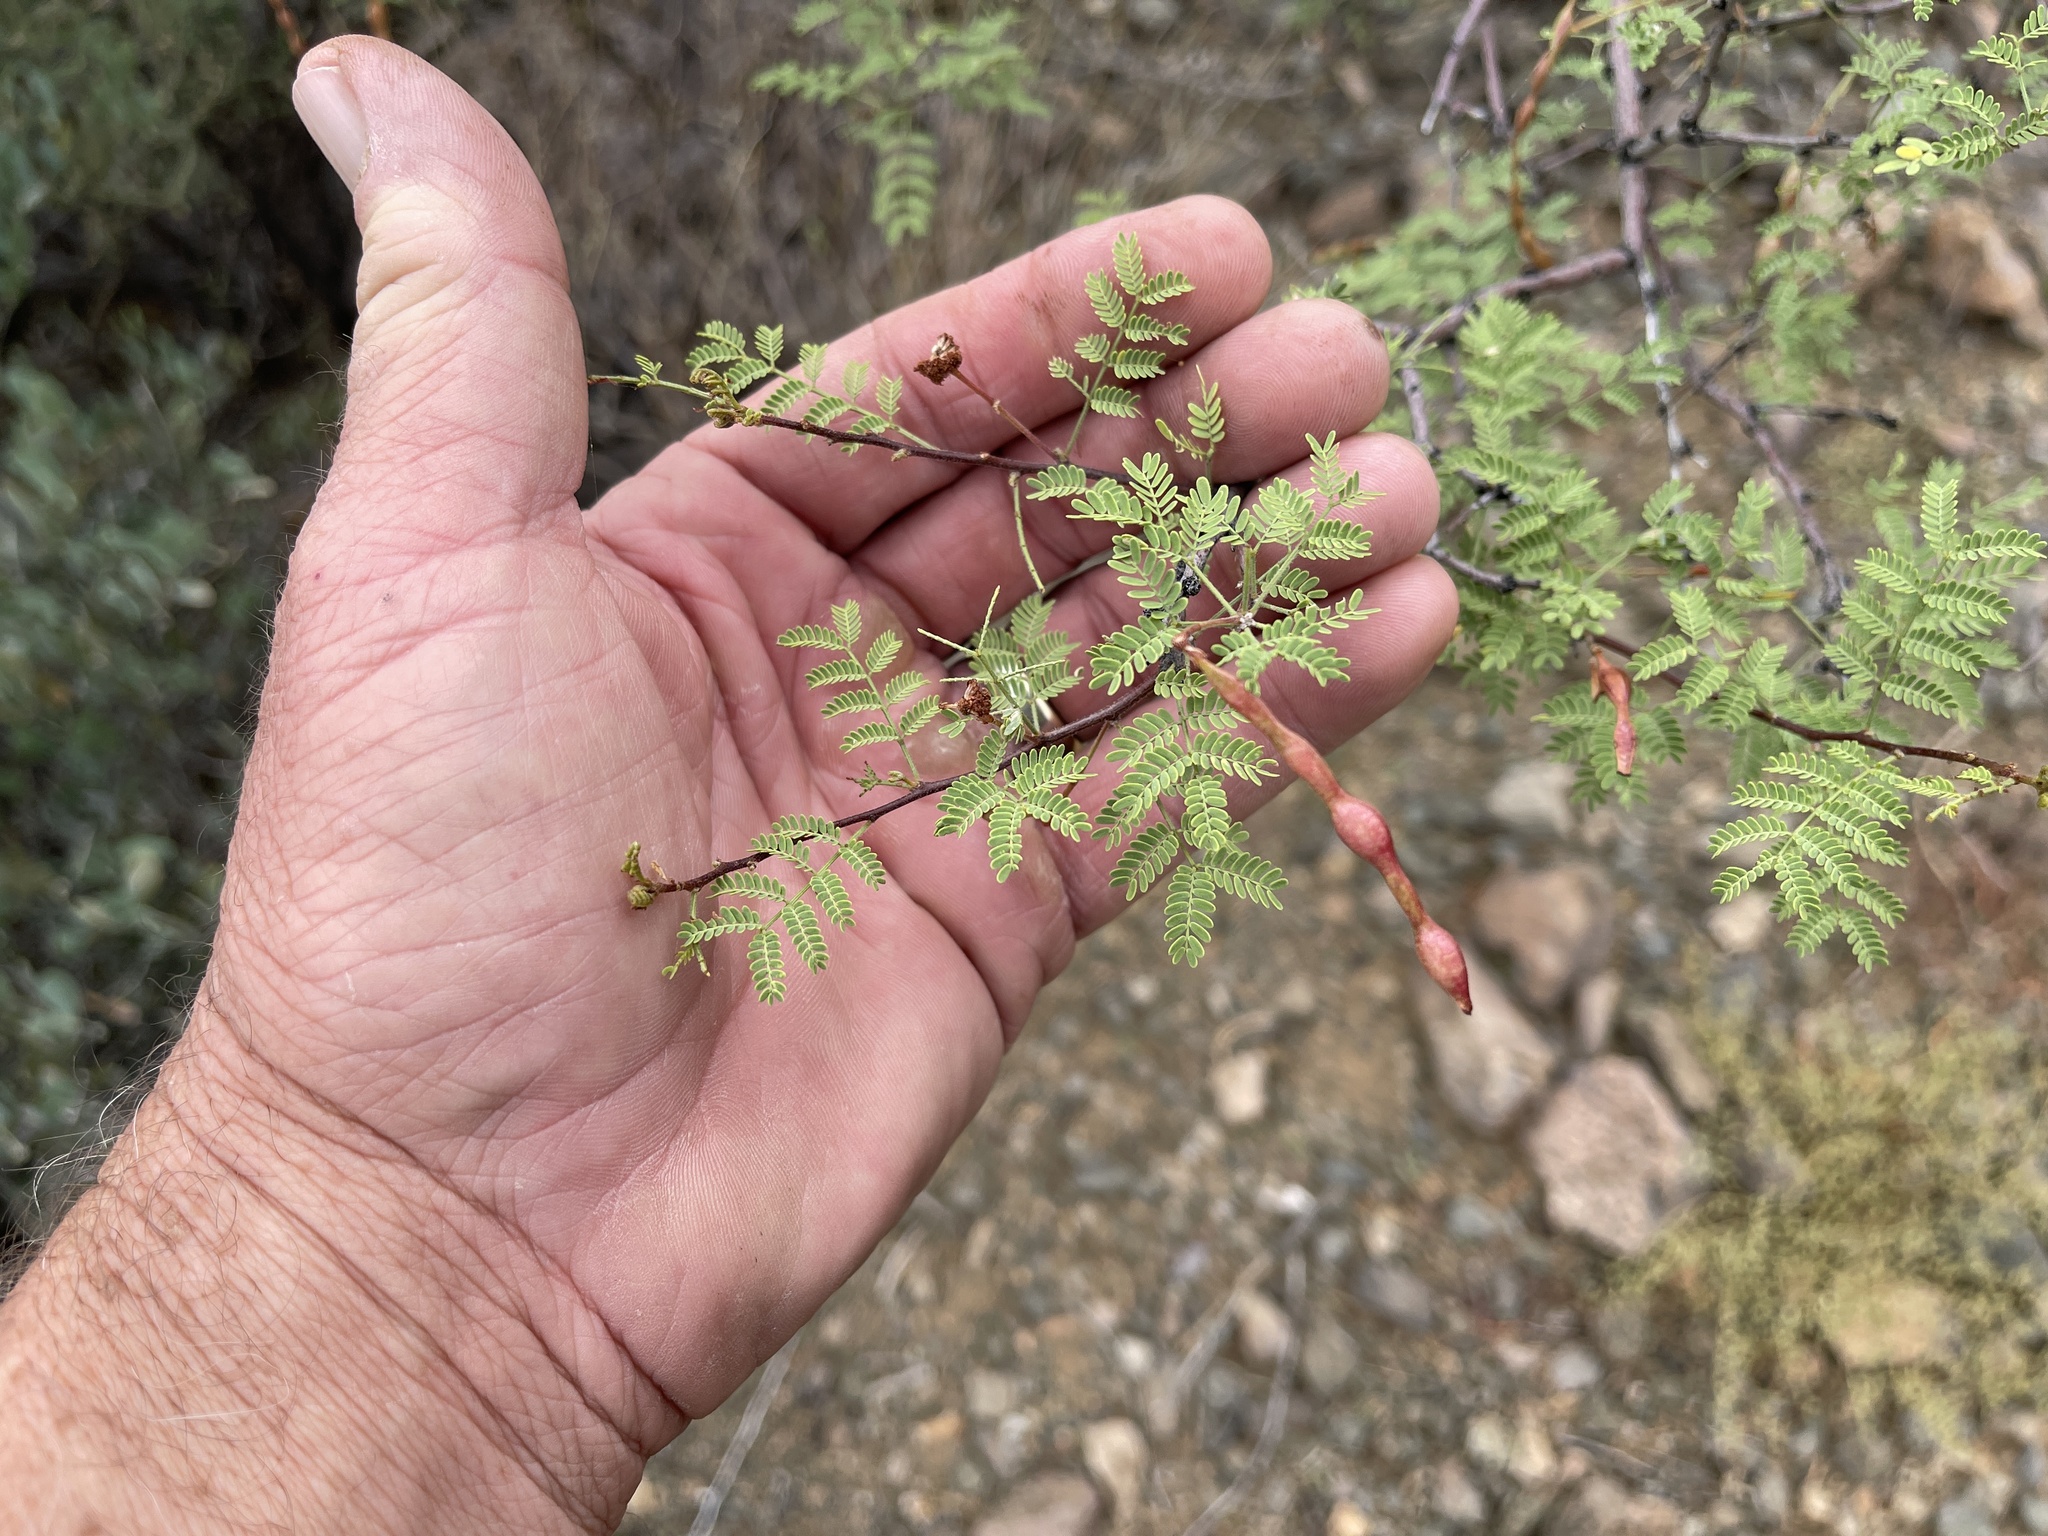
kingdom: Plantae
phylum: Tracheophyta
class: Magnoliopsida
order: Fabales
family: Fabaceae
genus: Vachellia
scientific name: Vachellia constricta
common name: Mescat acacia
